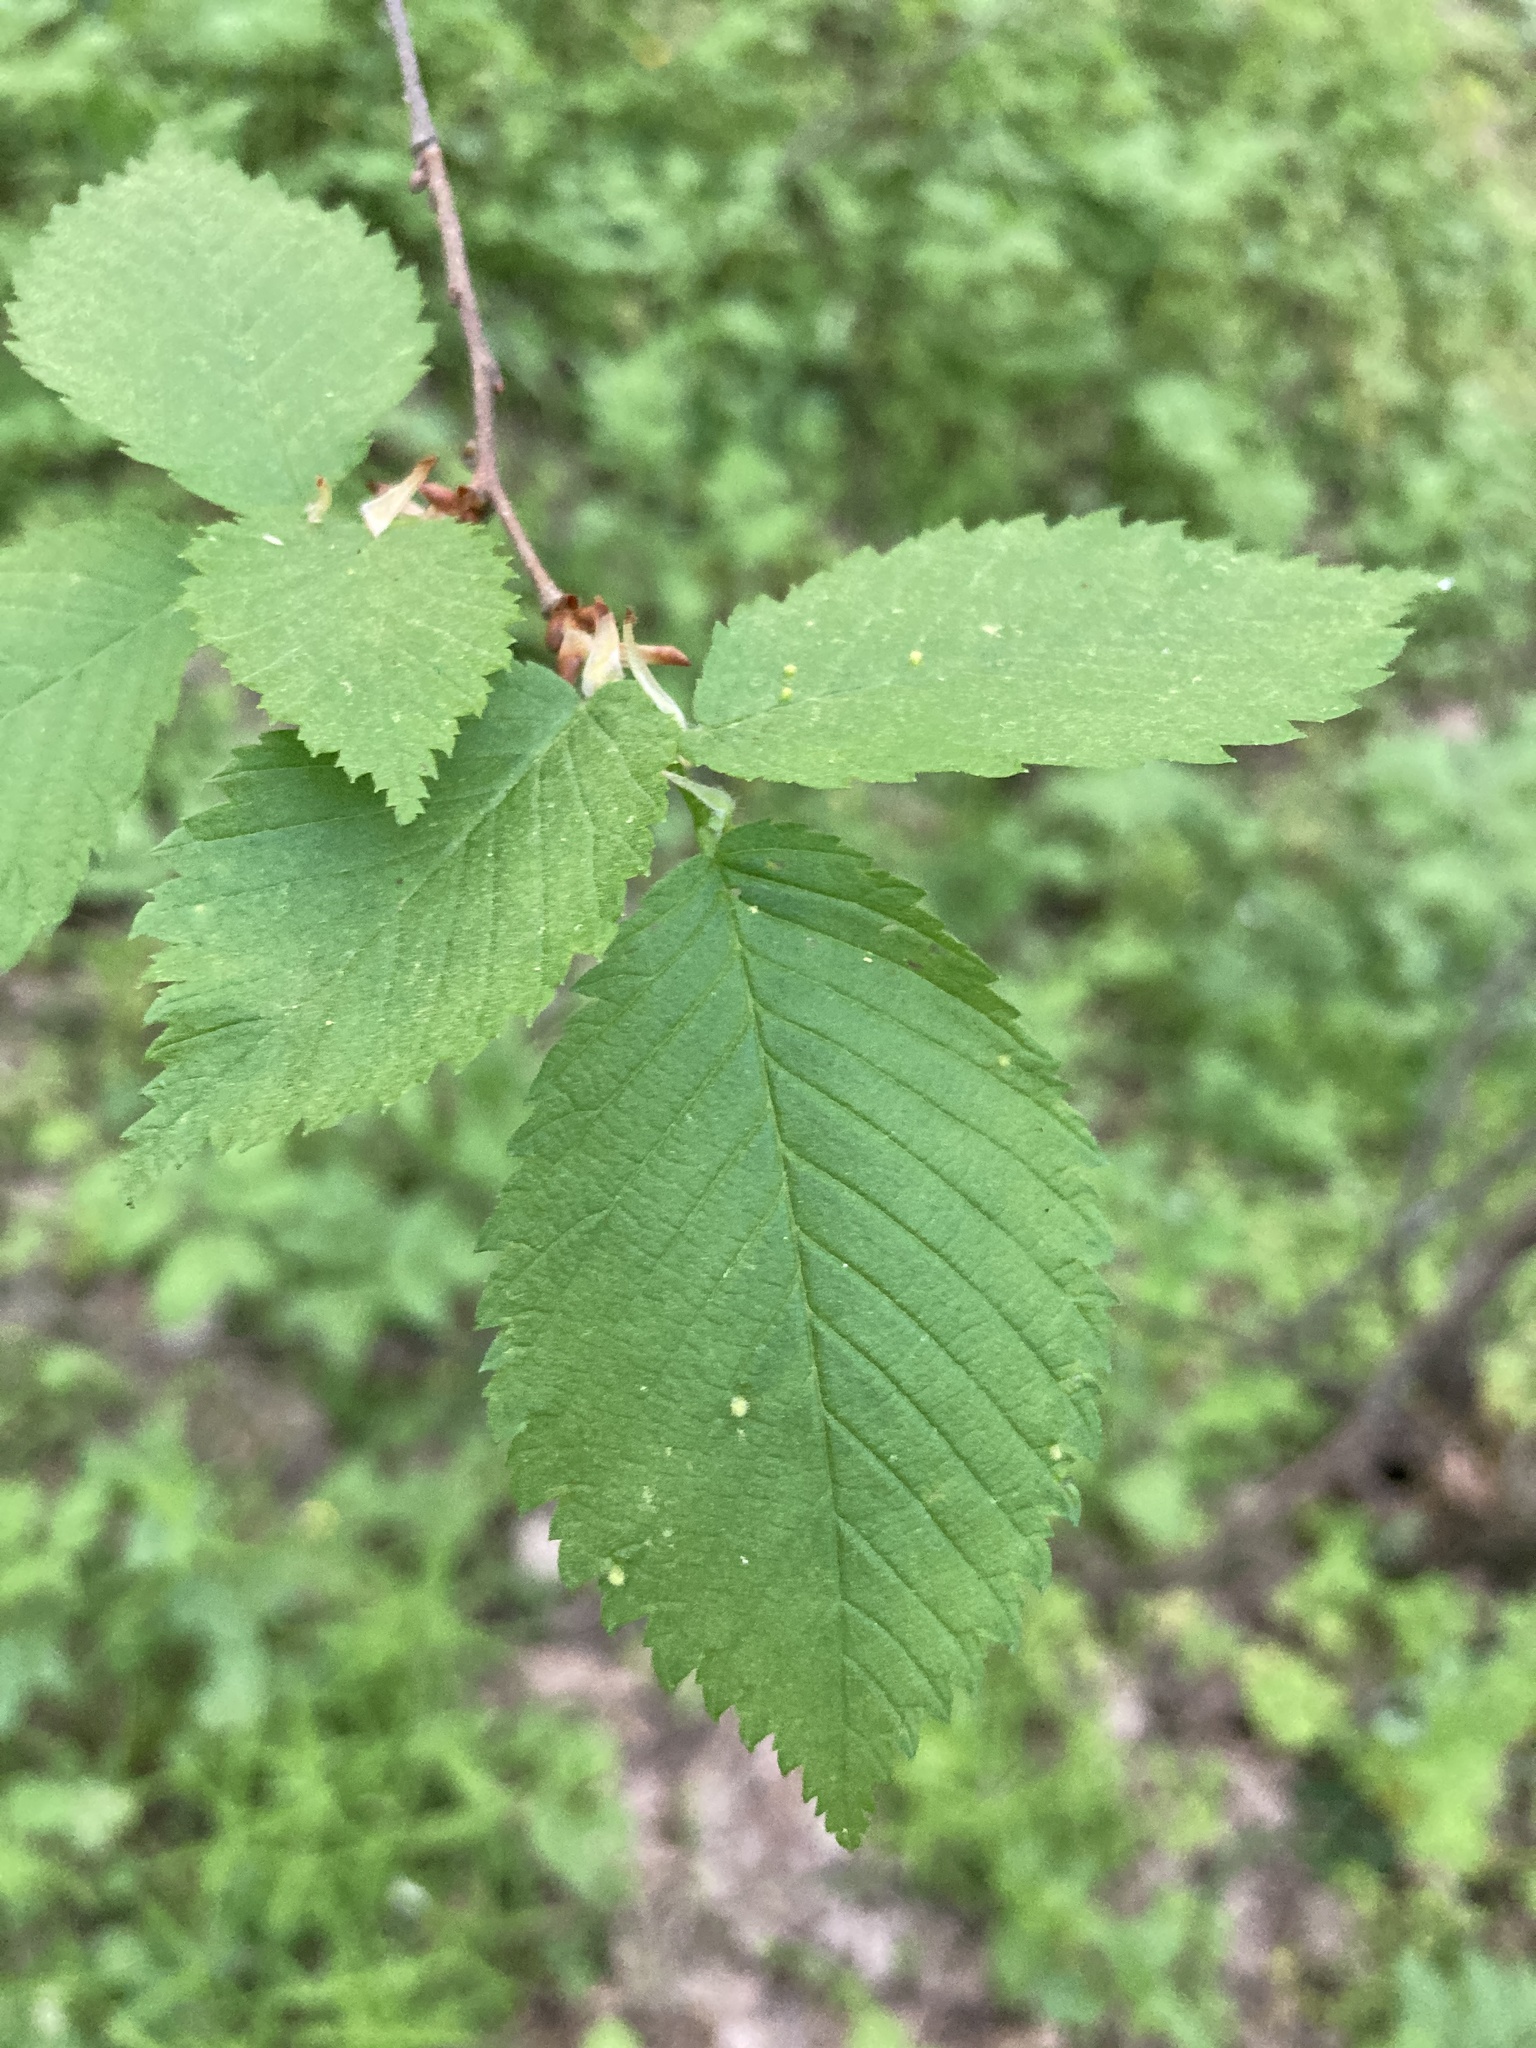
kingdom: Plantae
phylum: Tracheophyta
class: Magnoliopsida
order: Rosales
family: Ulmaceae
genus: Ulmus
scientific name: Ulmus minor
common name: Small-leaved elm
